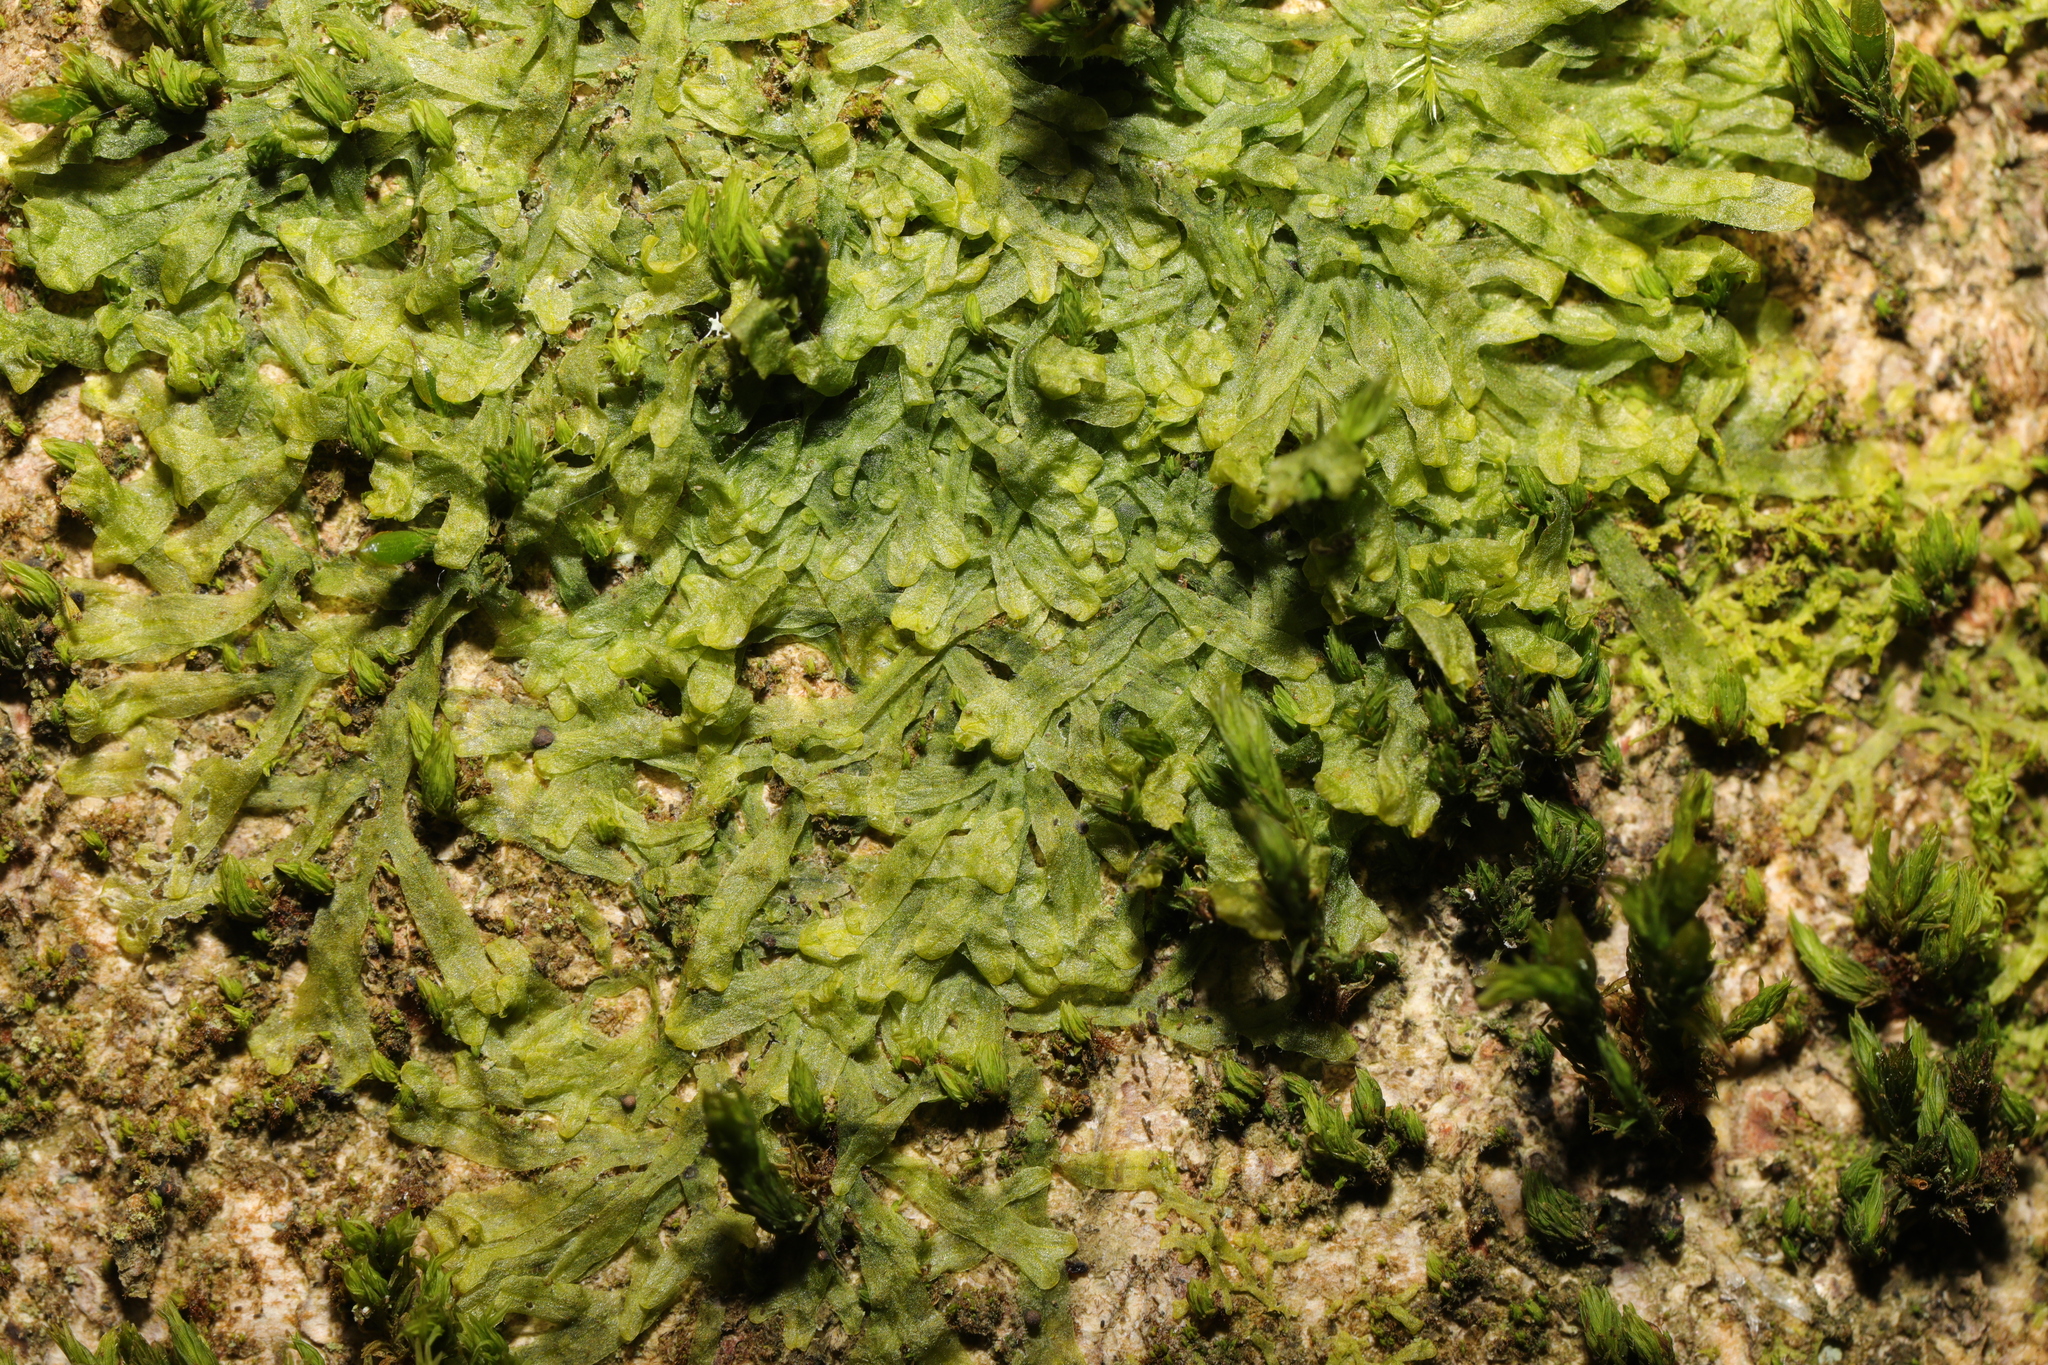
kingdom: Plantae
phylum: Marchantiophyta
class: Jungermanniopsida
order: Metzgeriales
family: Metzgeriaceae
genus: Metzgeria
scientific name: Metzgeria furcata
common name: Forked veilwort
